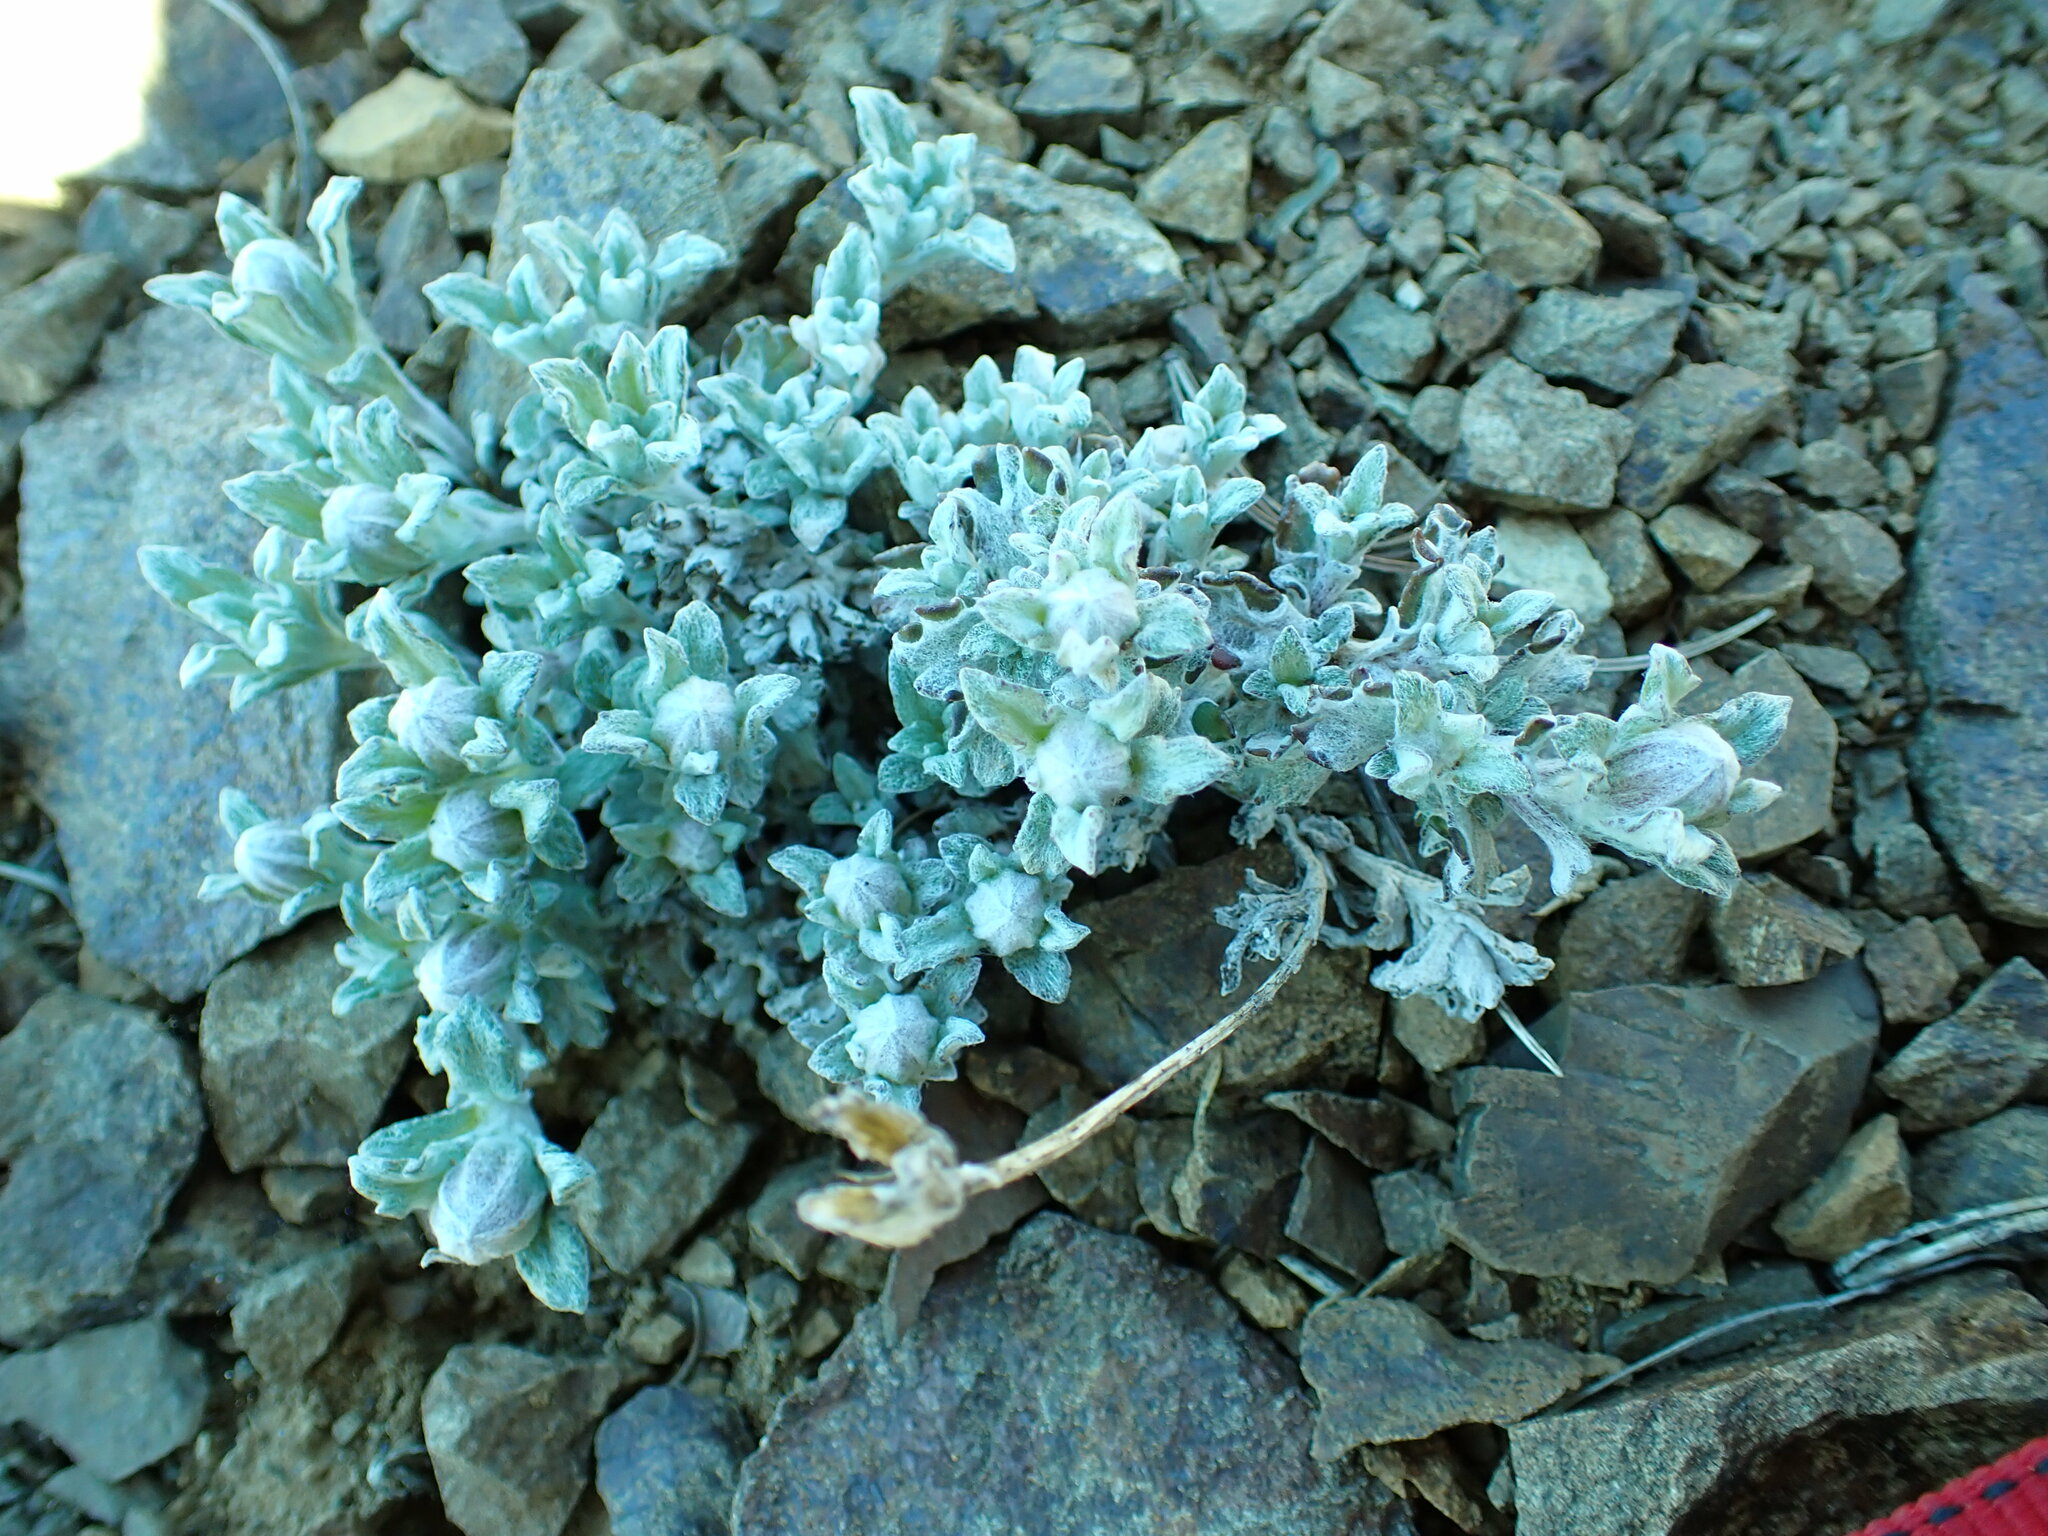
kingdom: Plantae
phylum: Tracheophyta
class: Magnoliopsida
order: Asterales
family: Asteraceae
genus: Eriophyllum
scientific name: Eriophyllum lanatum
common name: Common woolly-sunflower
